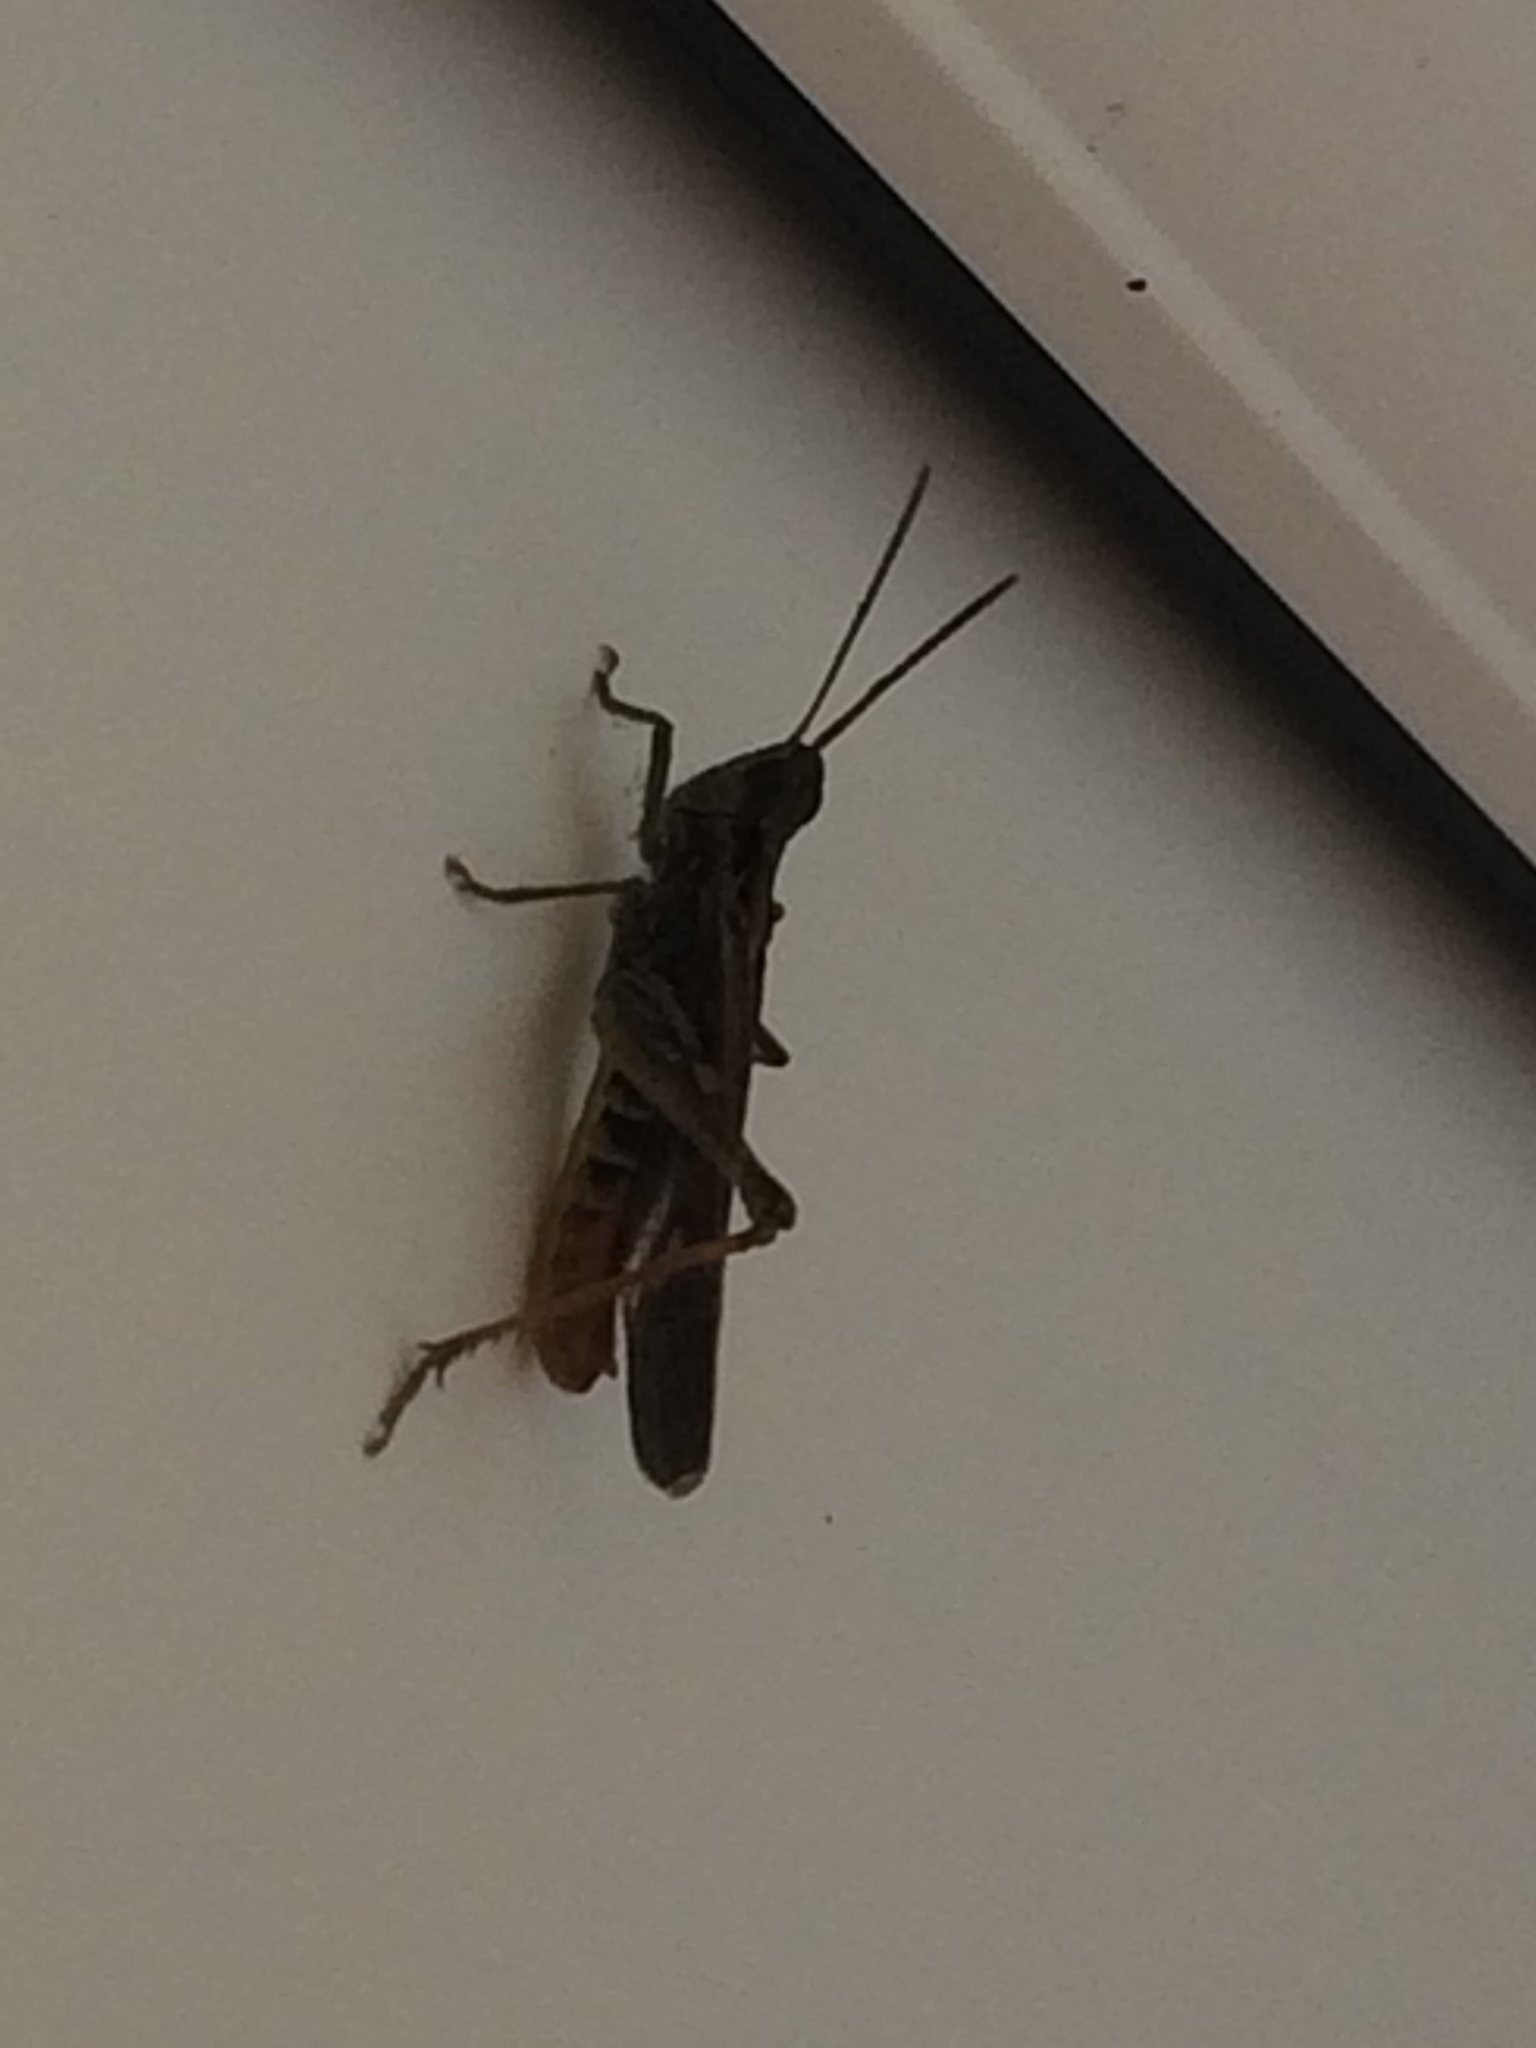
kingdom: Animalia
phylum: Arthropoda
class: Insecta
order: Orthoptera
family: Acrididae
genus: Chorthippus
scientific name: Chorthippus brunneus
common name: Field grasshopper
